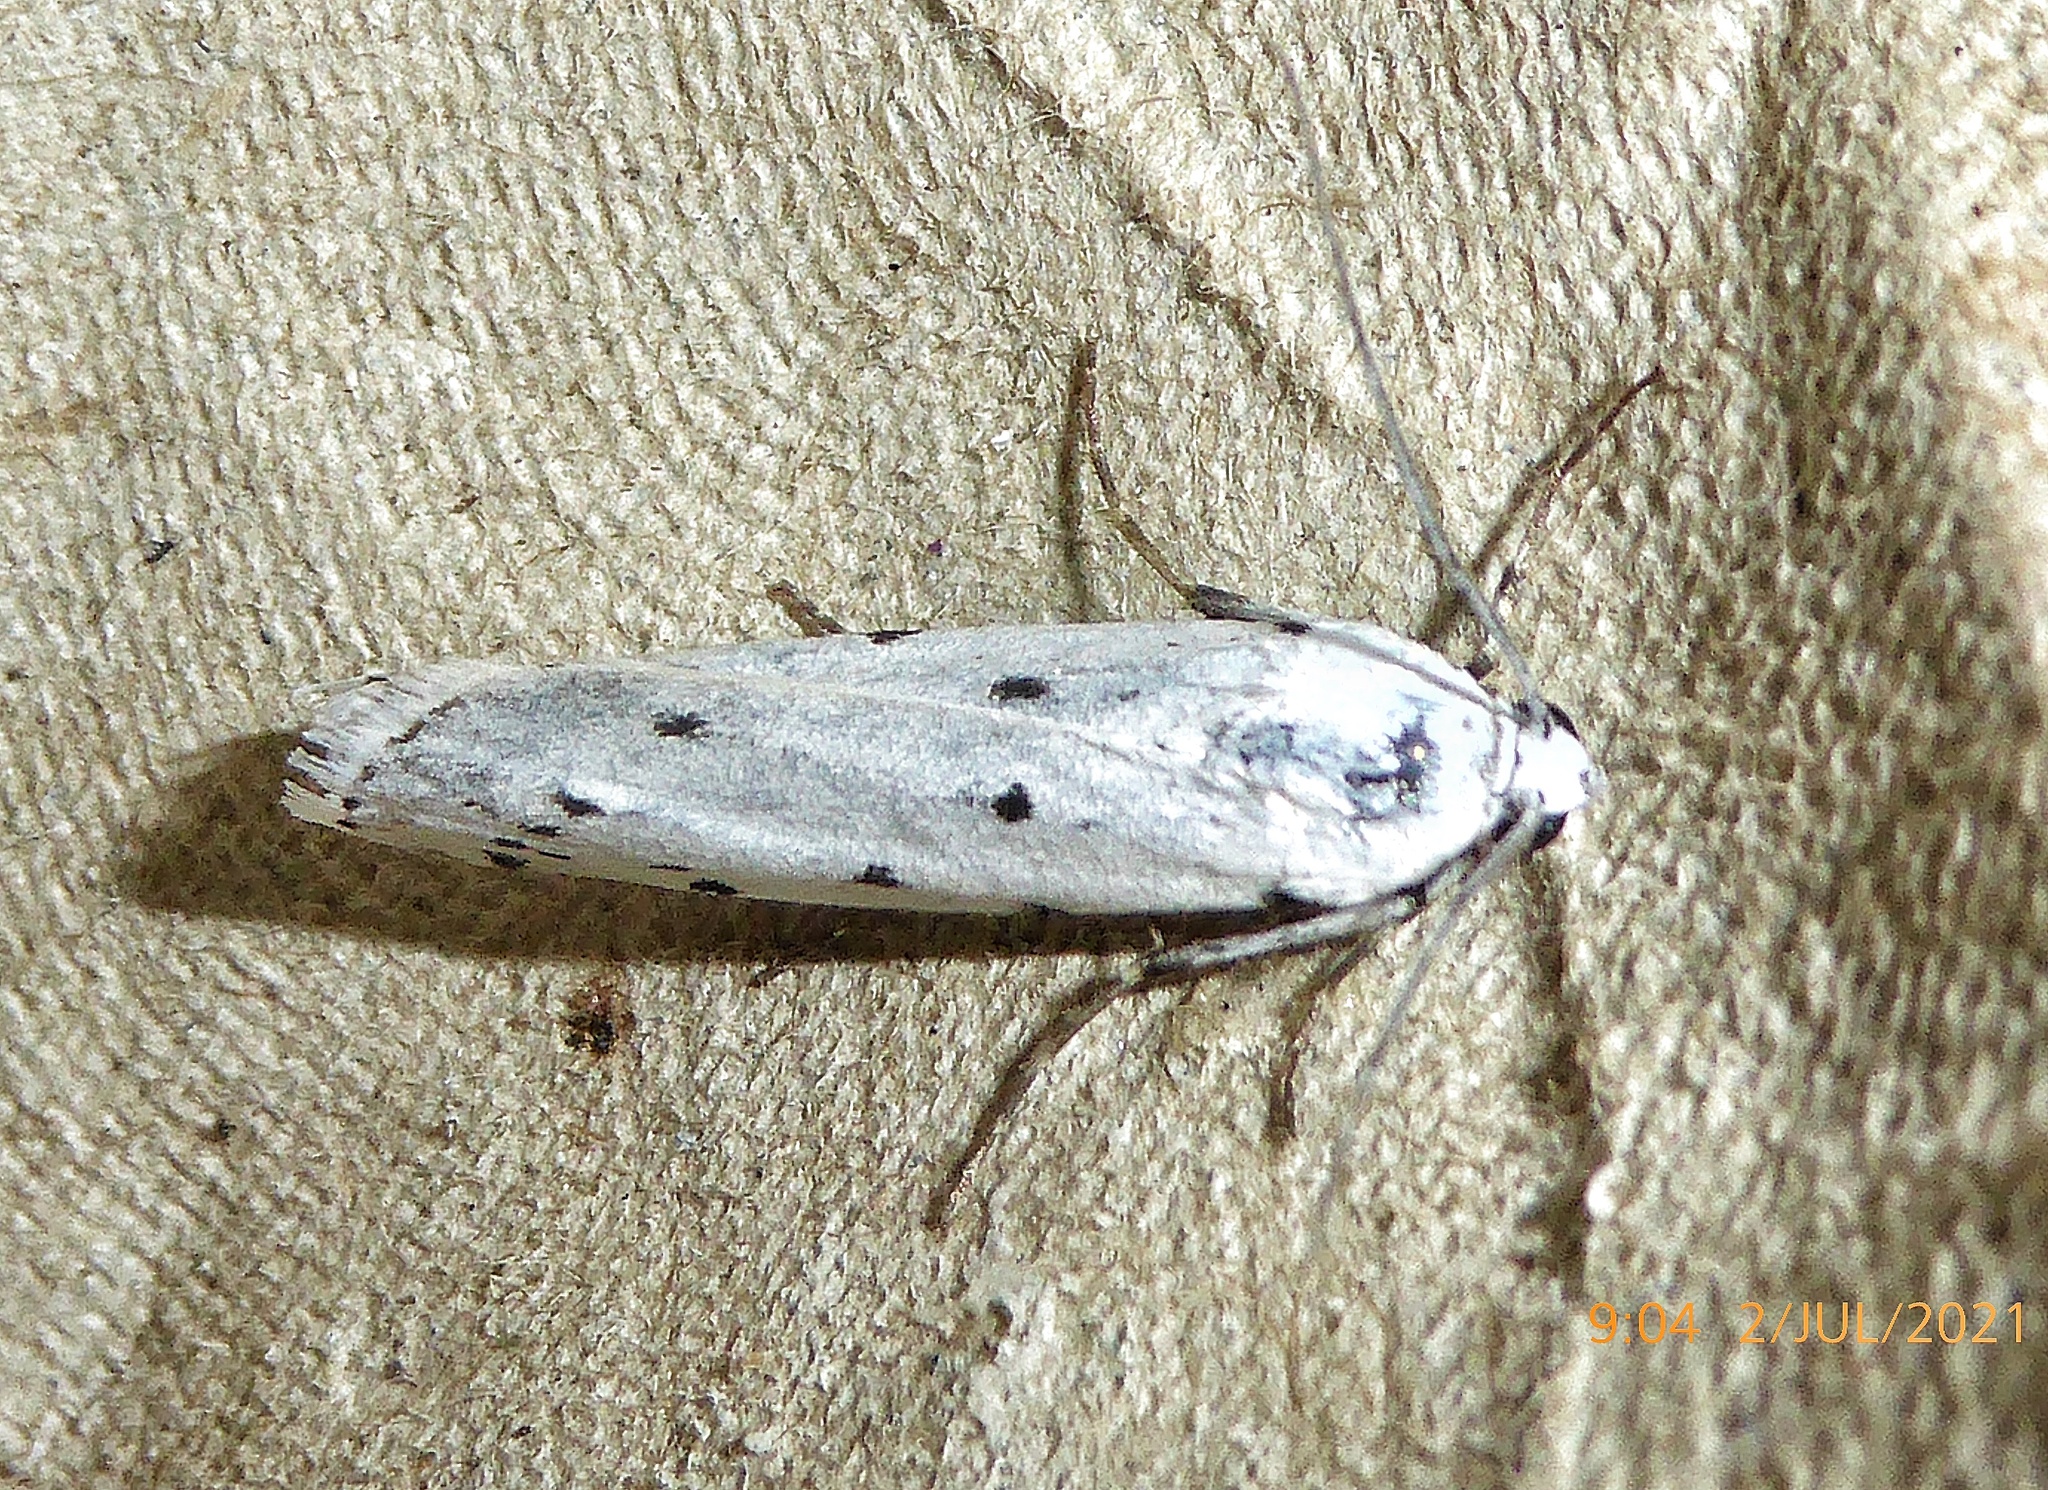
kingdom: Animalia
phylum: Arthropoda
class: Insecta
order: Lepidoptera
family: Pyralidae
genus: Myelois
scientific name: Myelois circumvoluta
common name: Thistle ermine
